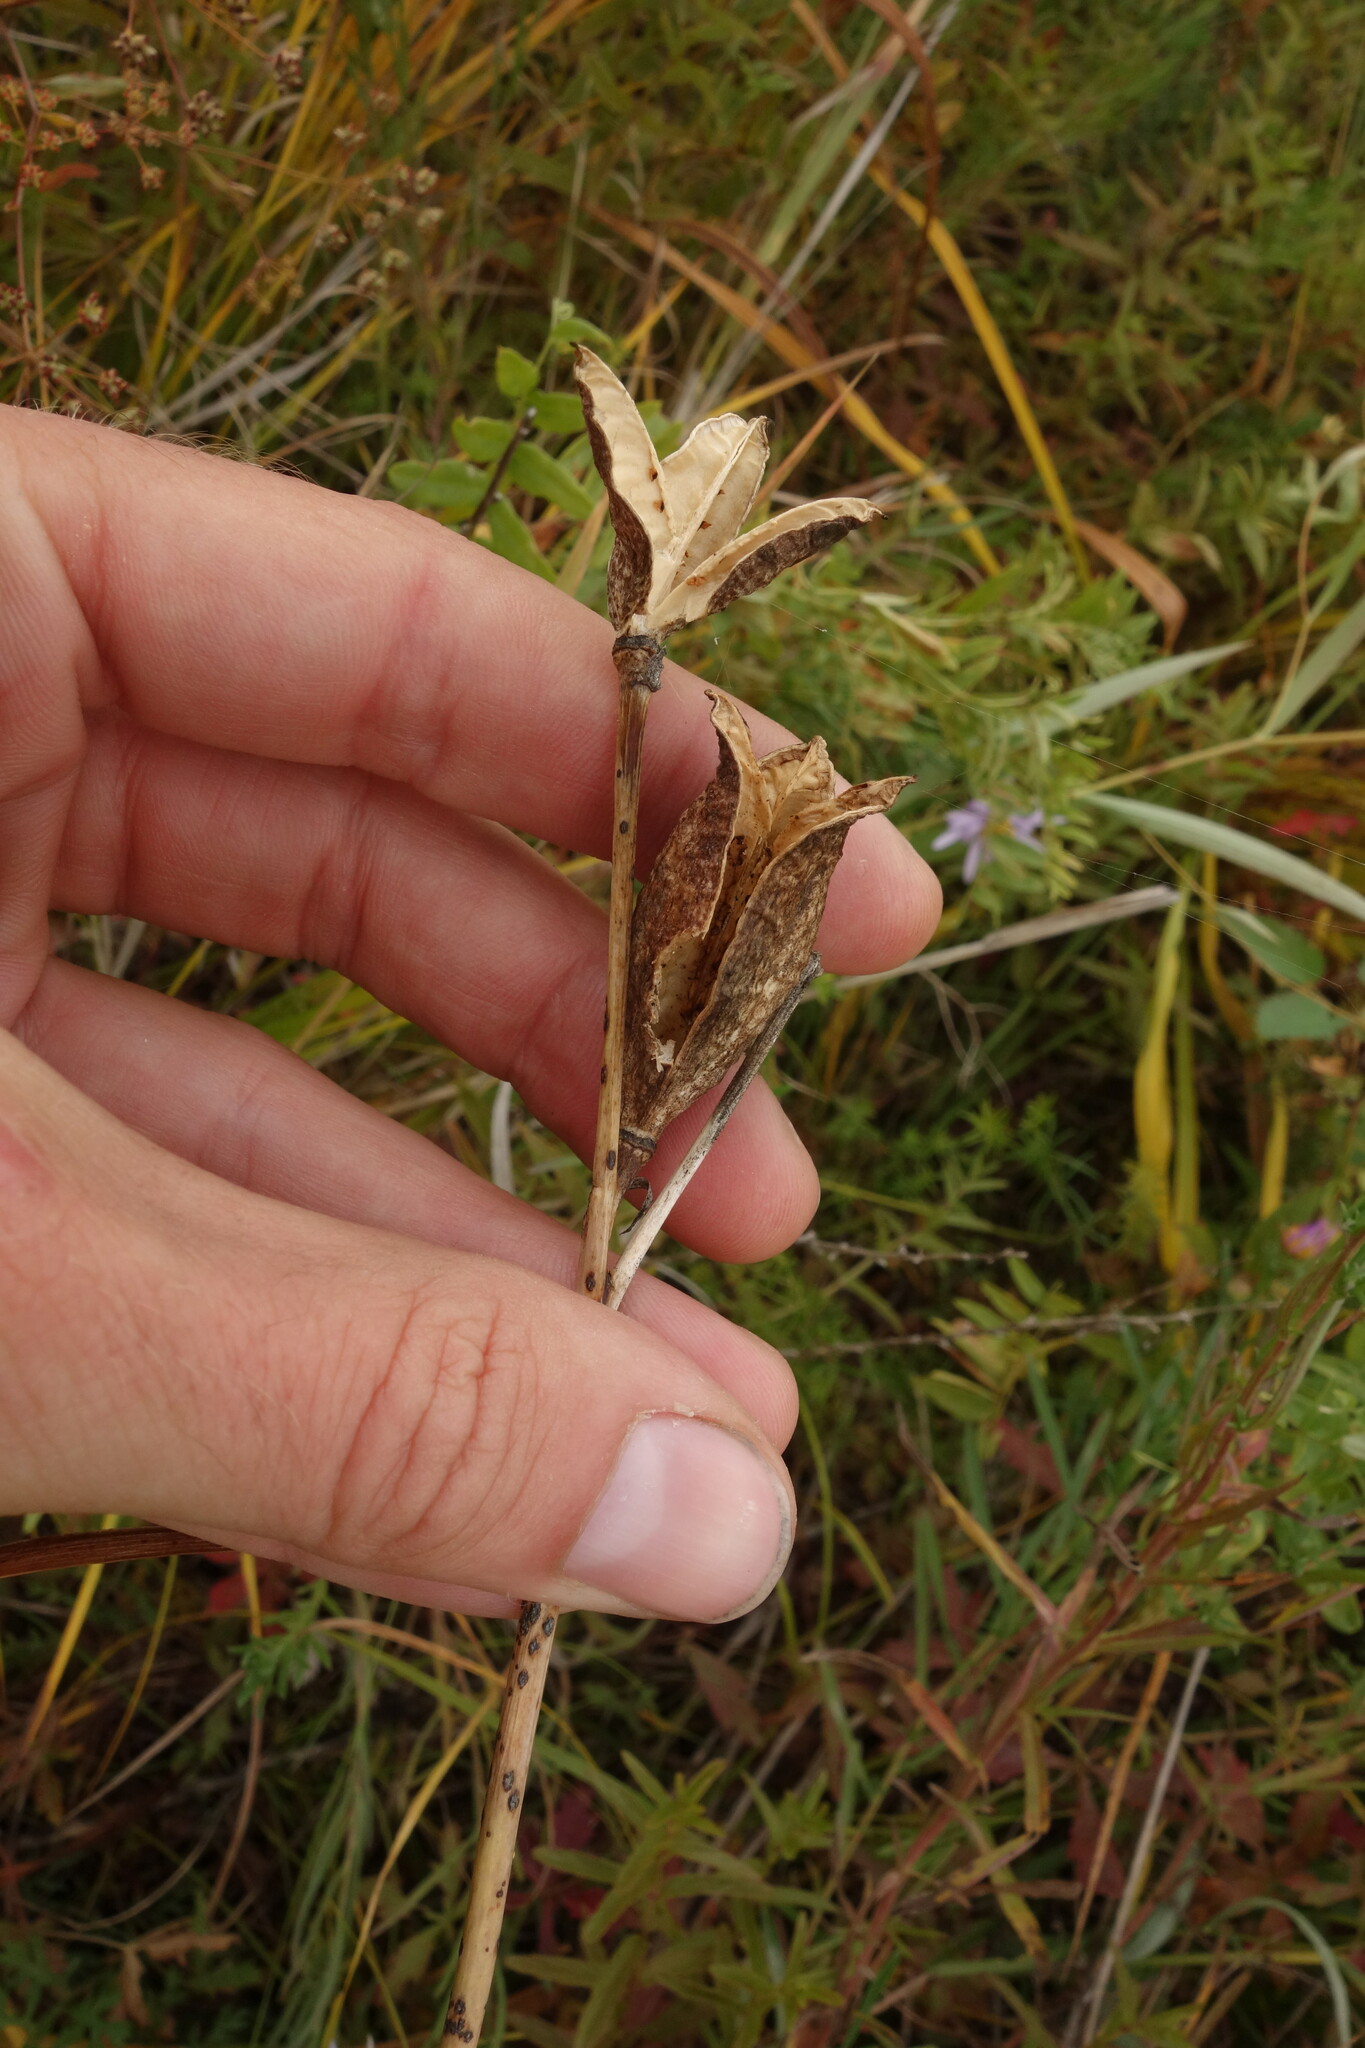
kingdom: Plantae
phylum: Tracheophyta
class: Liliopsida
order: Asparagales
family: Asphodelaceae
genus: Hemerocallis
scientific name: Hemerocallis minor
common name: Small daylily
